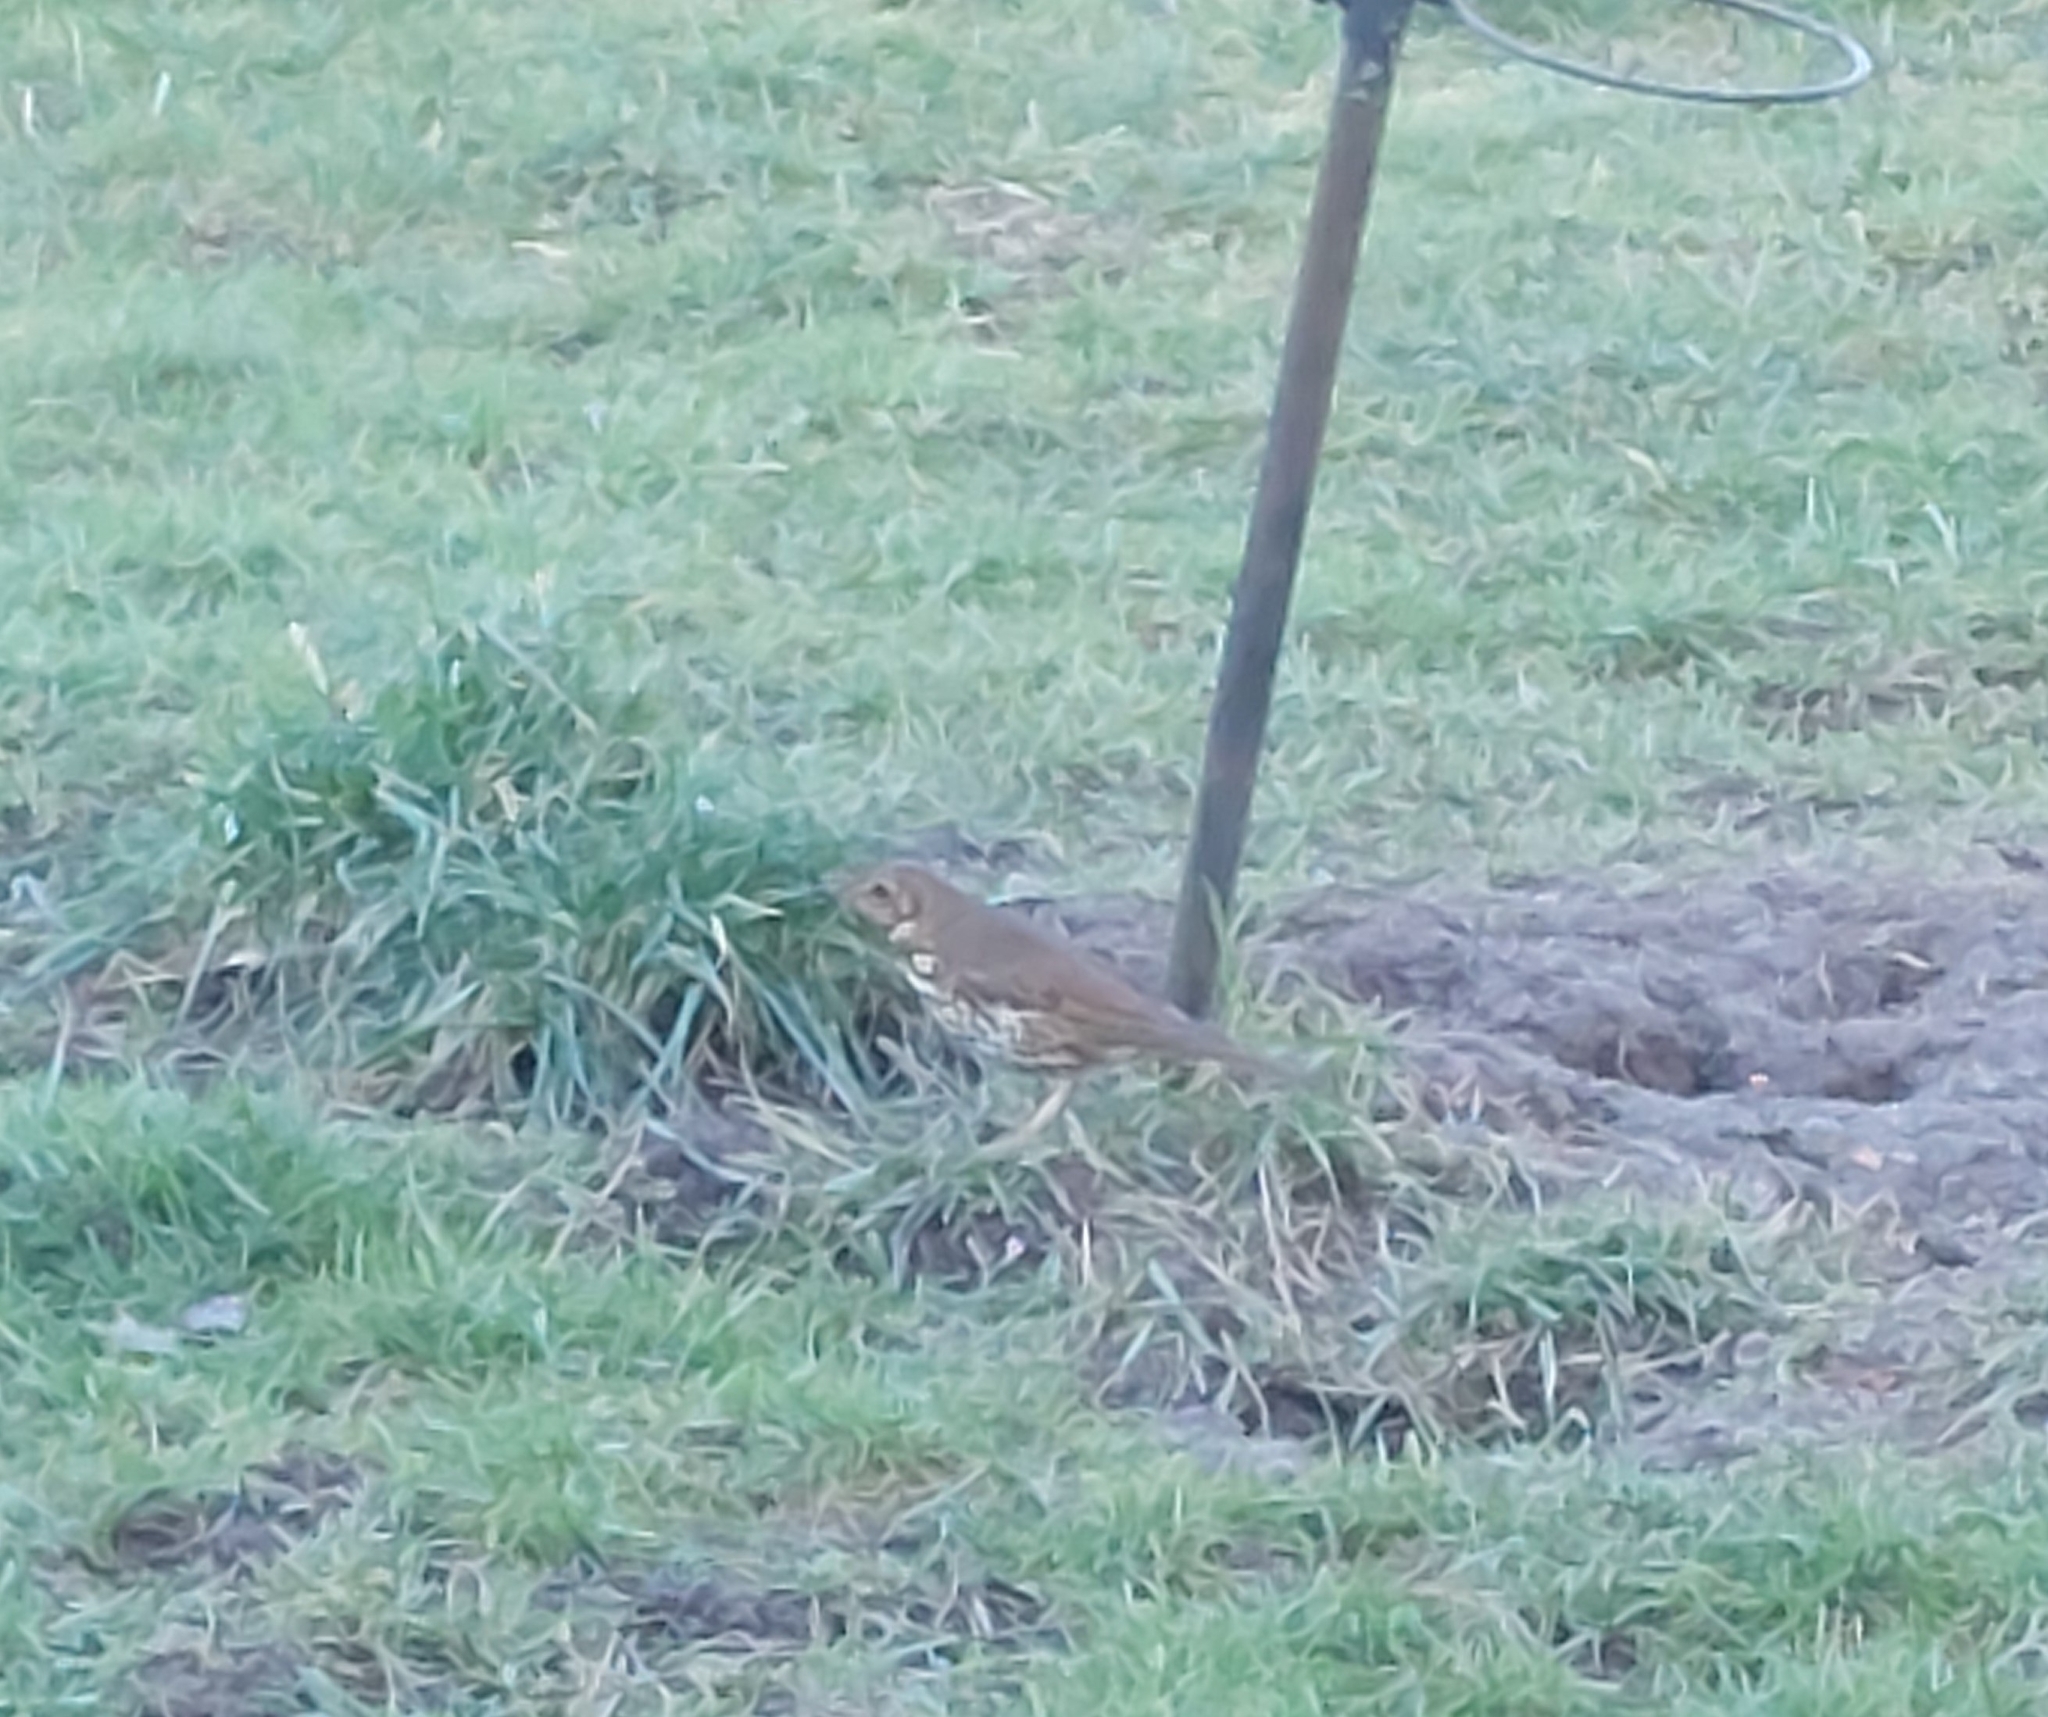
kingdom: Animalia
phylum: Chordata
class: Aves
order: Passeriformes
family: Turdidae
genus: Turdus
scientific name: Turdus philomelos
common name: Song thrush
